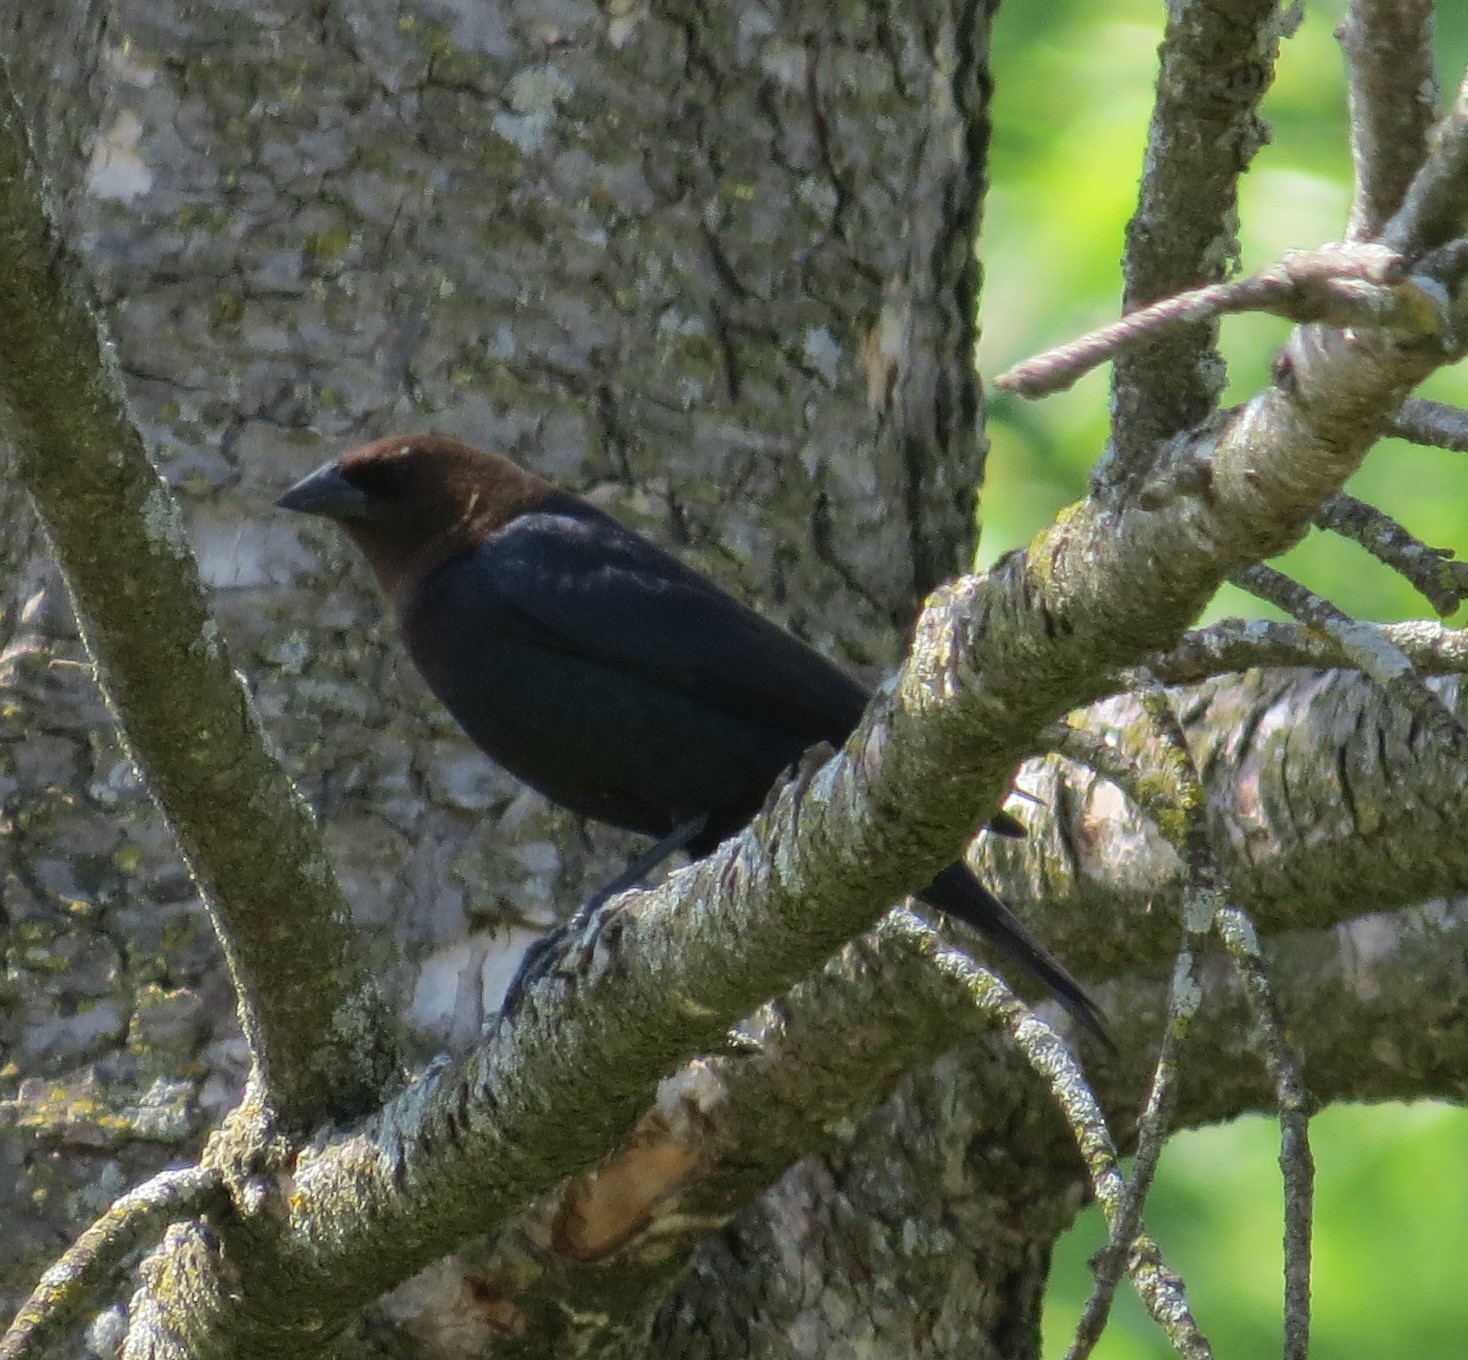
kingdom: Animalia
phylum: Chordata
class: Aves
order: Passeriformes
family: Icteridae
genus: Molothrus
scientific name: Molothrus ater
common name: Brown-headed cowbird
